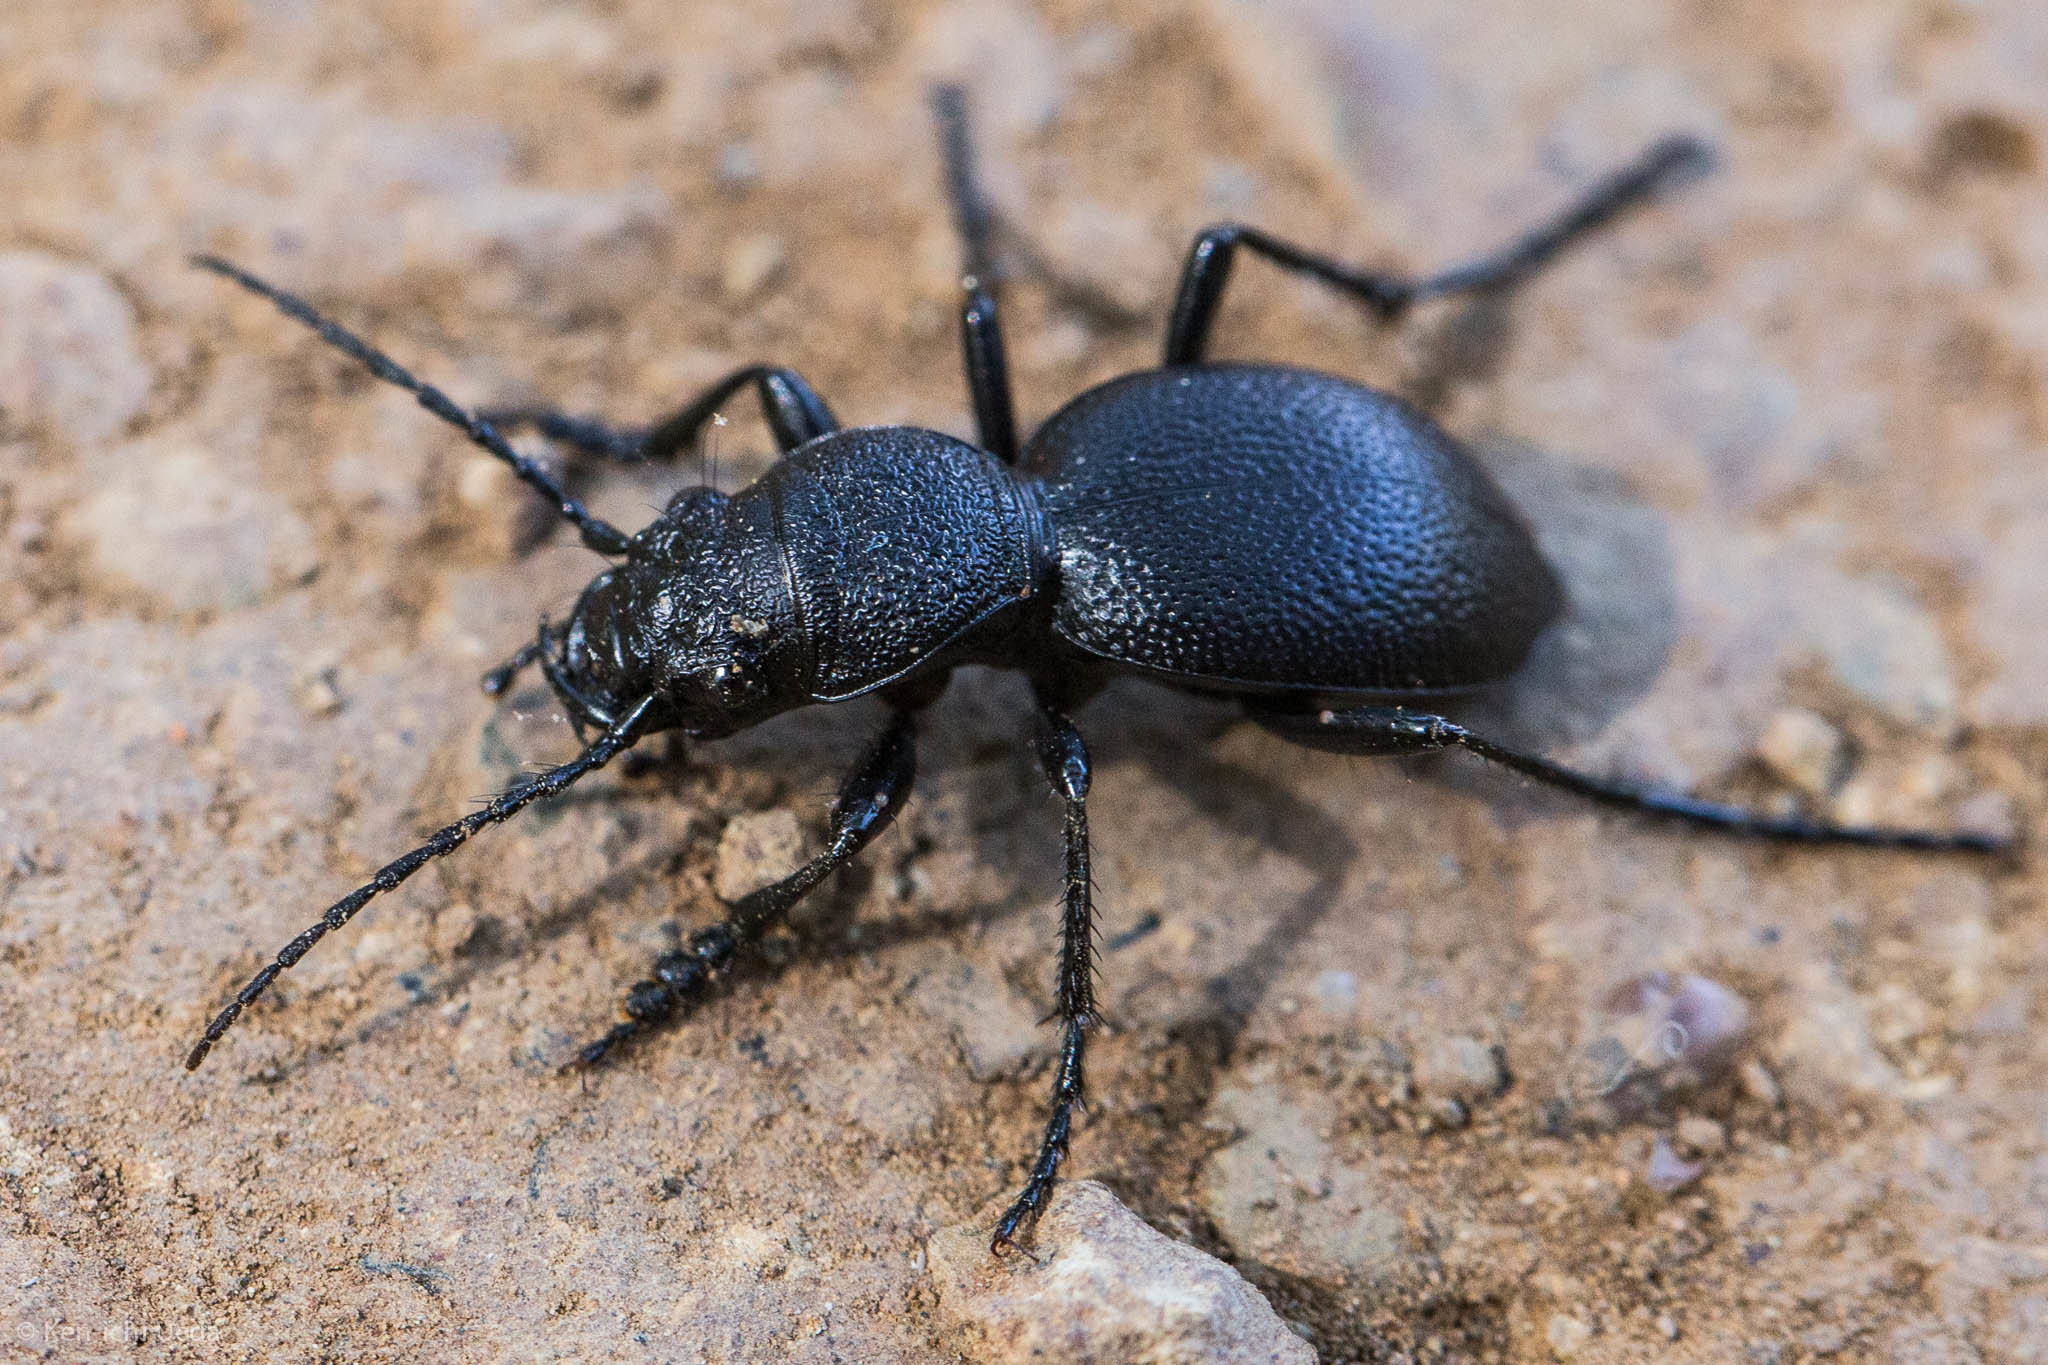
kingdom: Animalia
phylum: Arthropoda
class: Insecta
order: Coleoptera
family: Carabidae
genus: Omus
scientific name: Omus californicus
